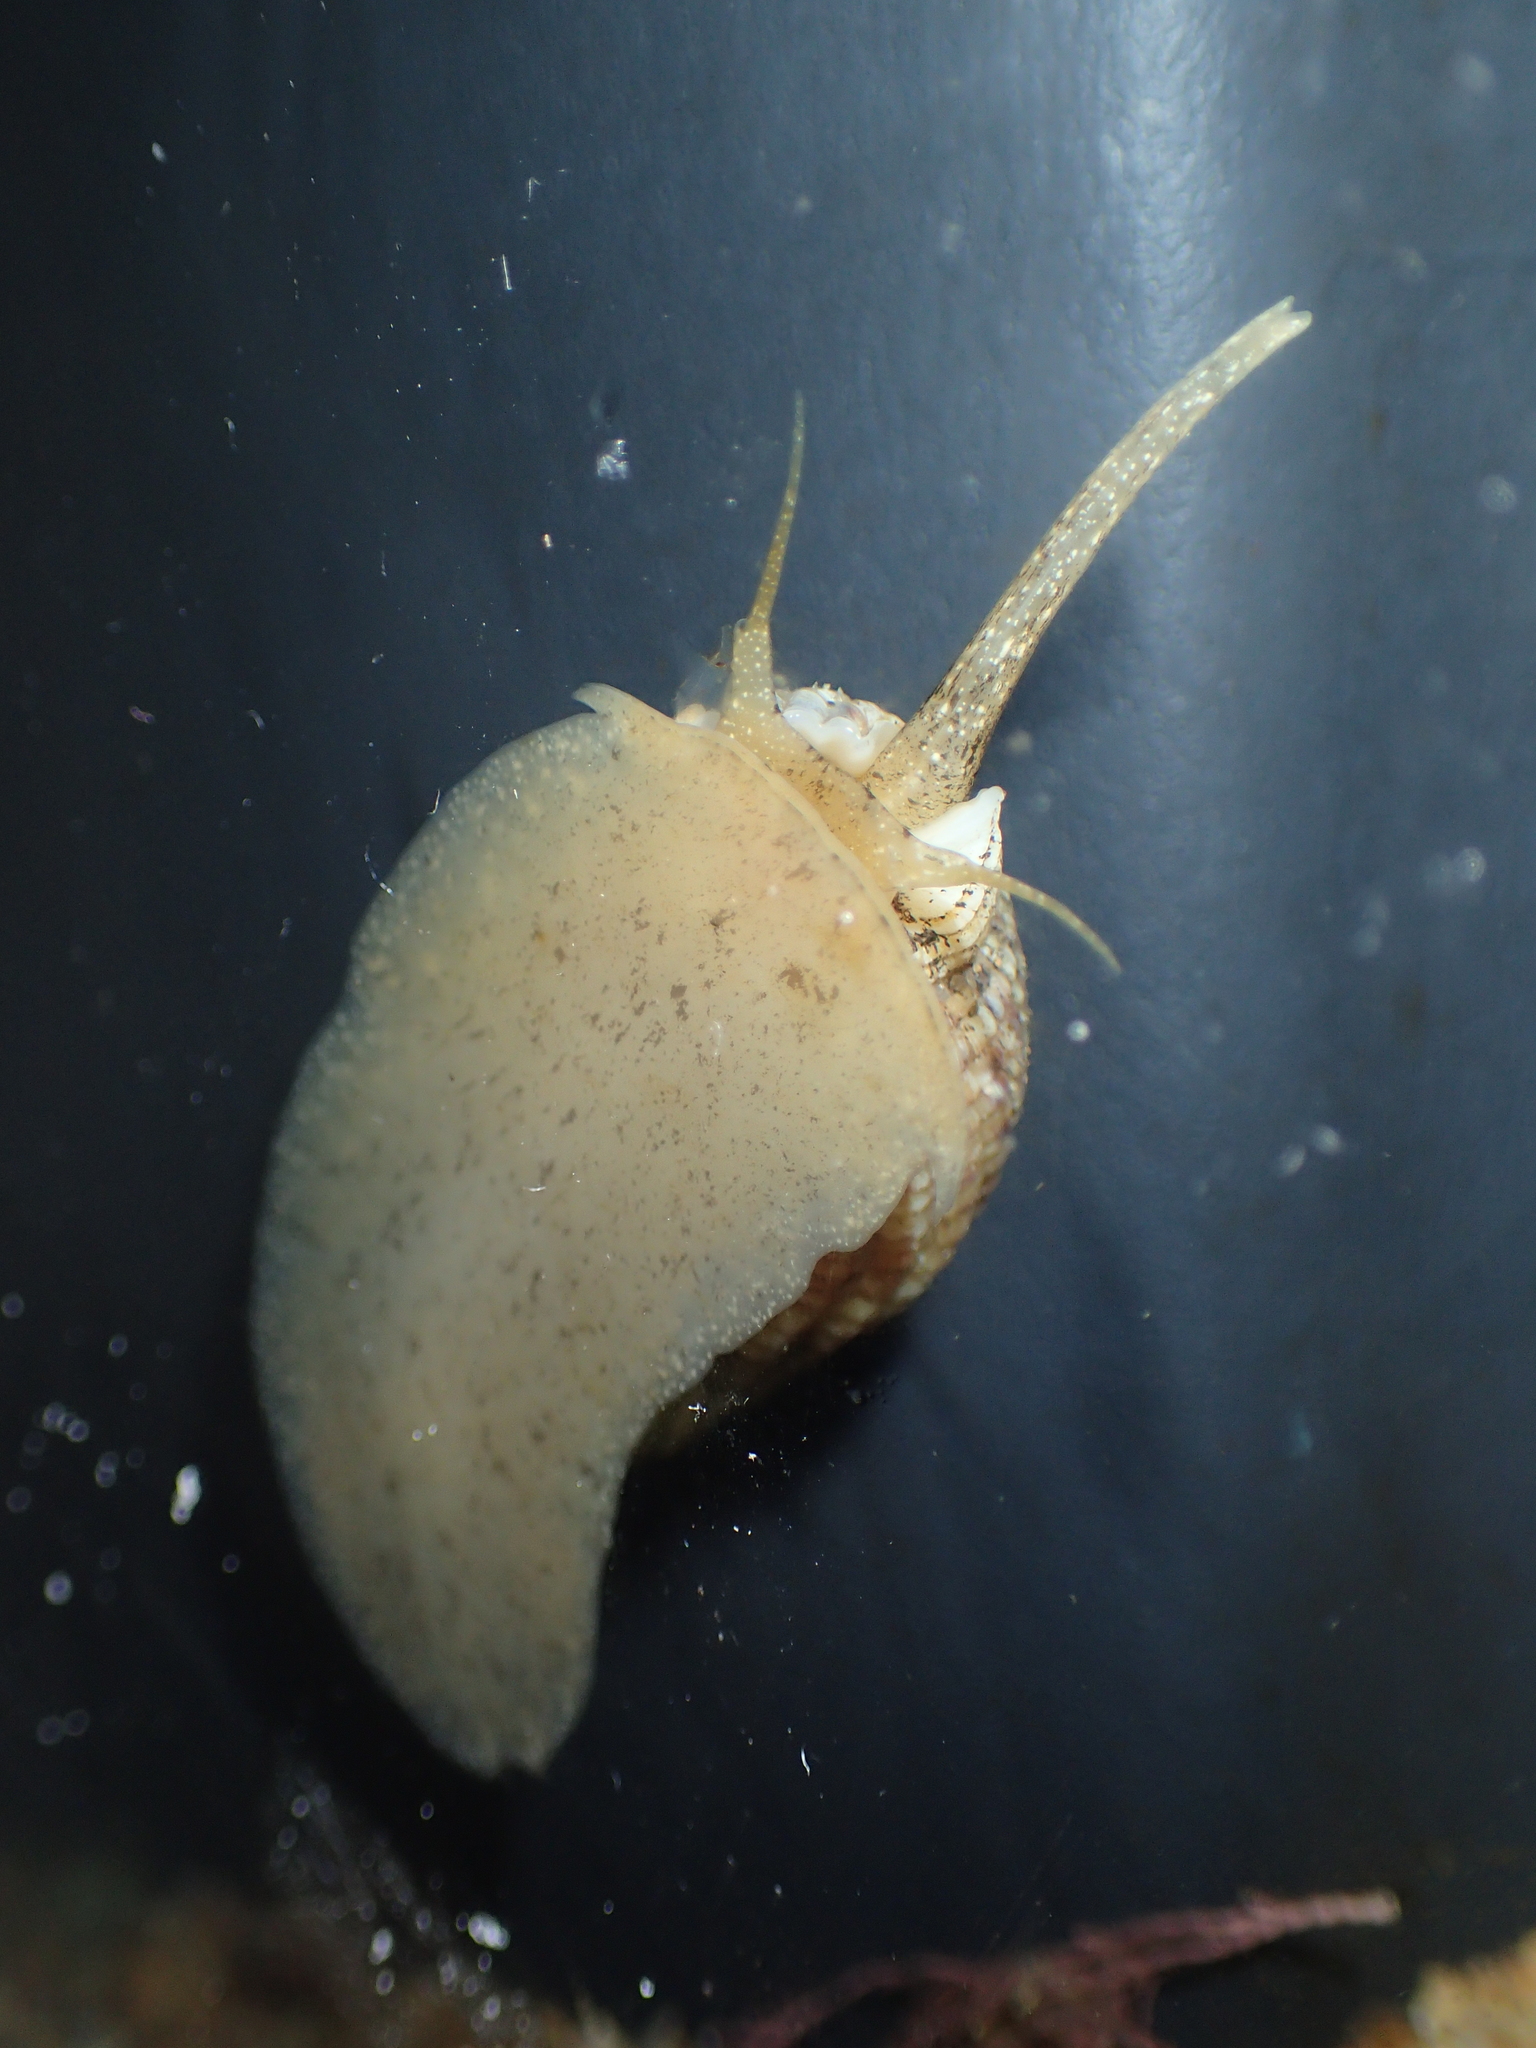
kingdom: Animalia
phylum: Mollusca
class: Gastropoda
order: Neogastropoda
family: Nassariidae
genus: Tritia
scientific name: Tritia reticulata
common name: Netted dog whelk
